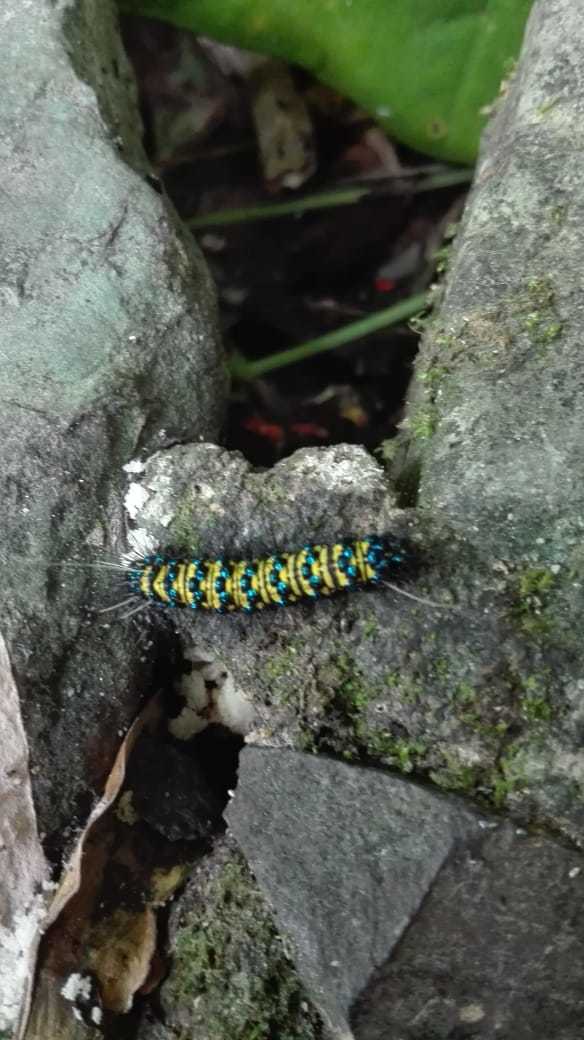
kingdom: Animalia
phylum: Arthropoda
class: Insecta
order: Lepidoptera
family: Erebidae
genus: Phaloesia
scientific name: Phaloesia saucia
